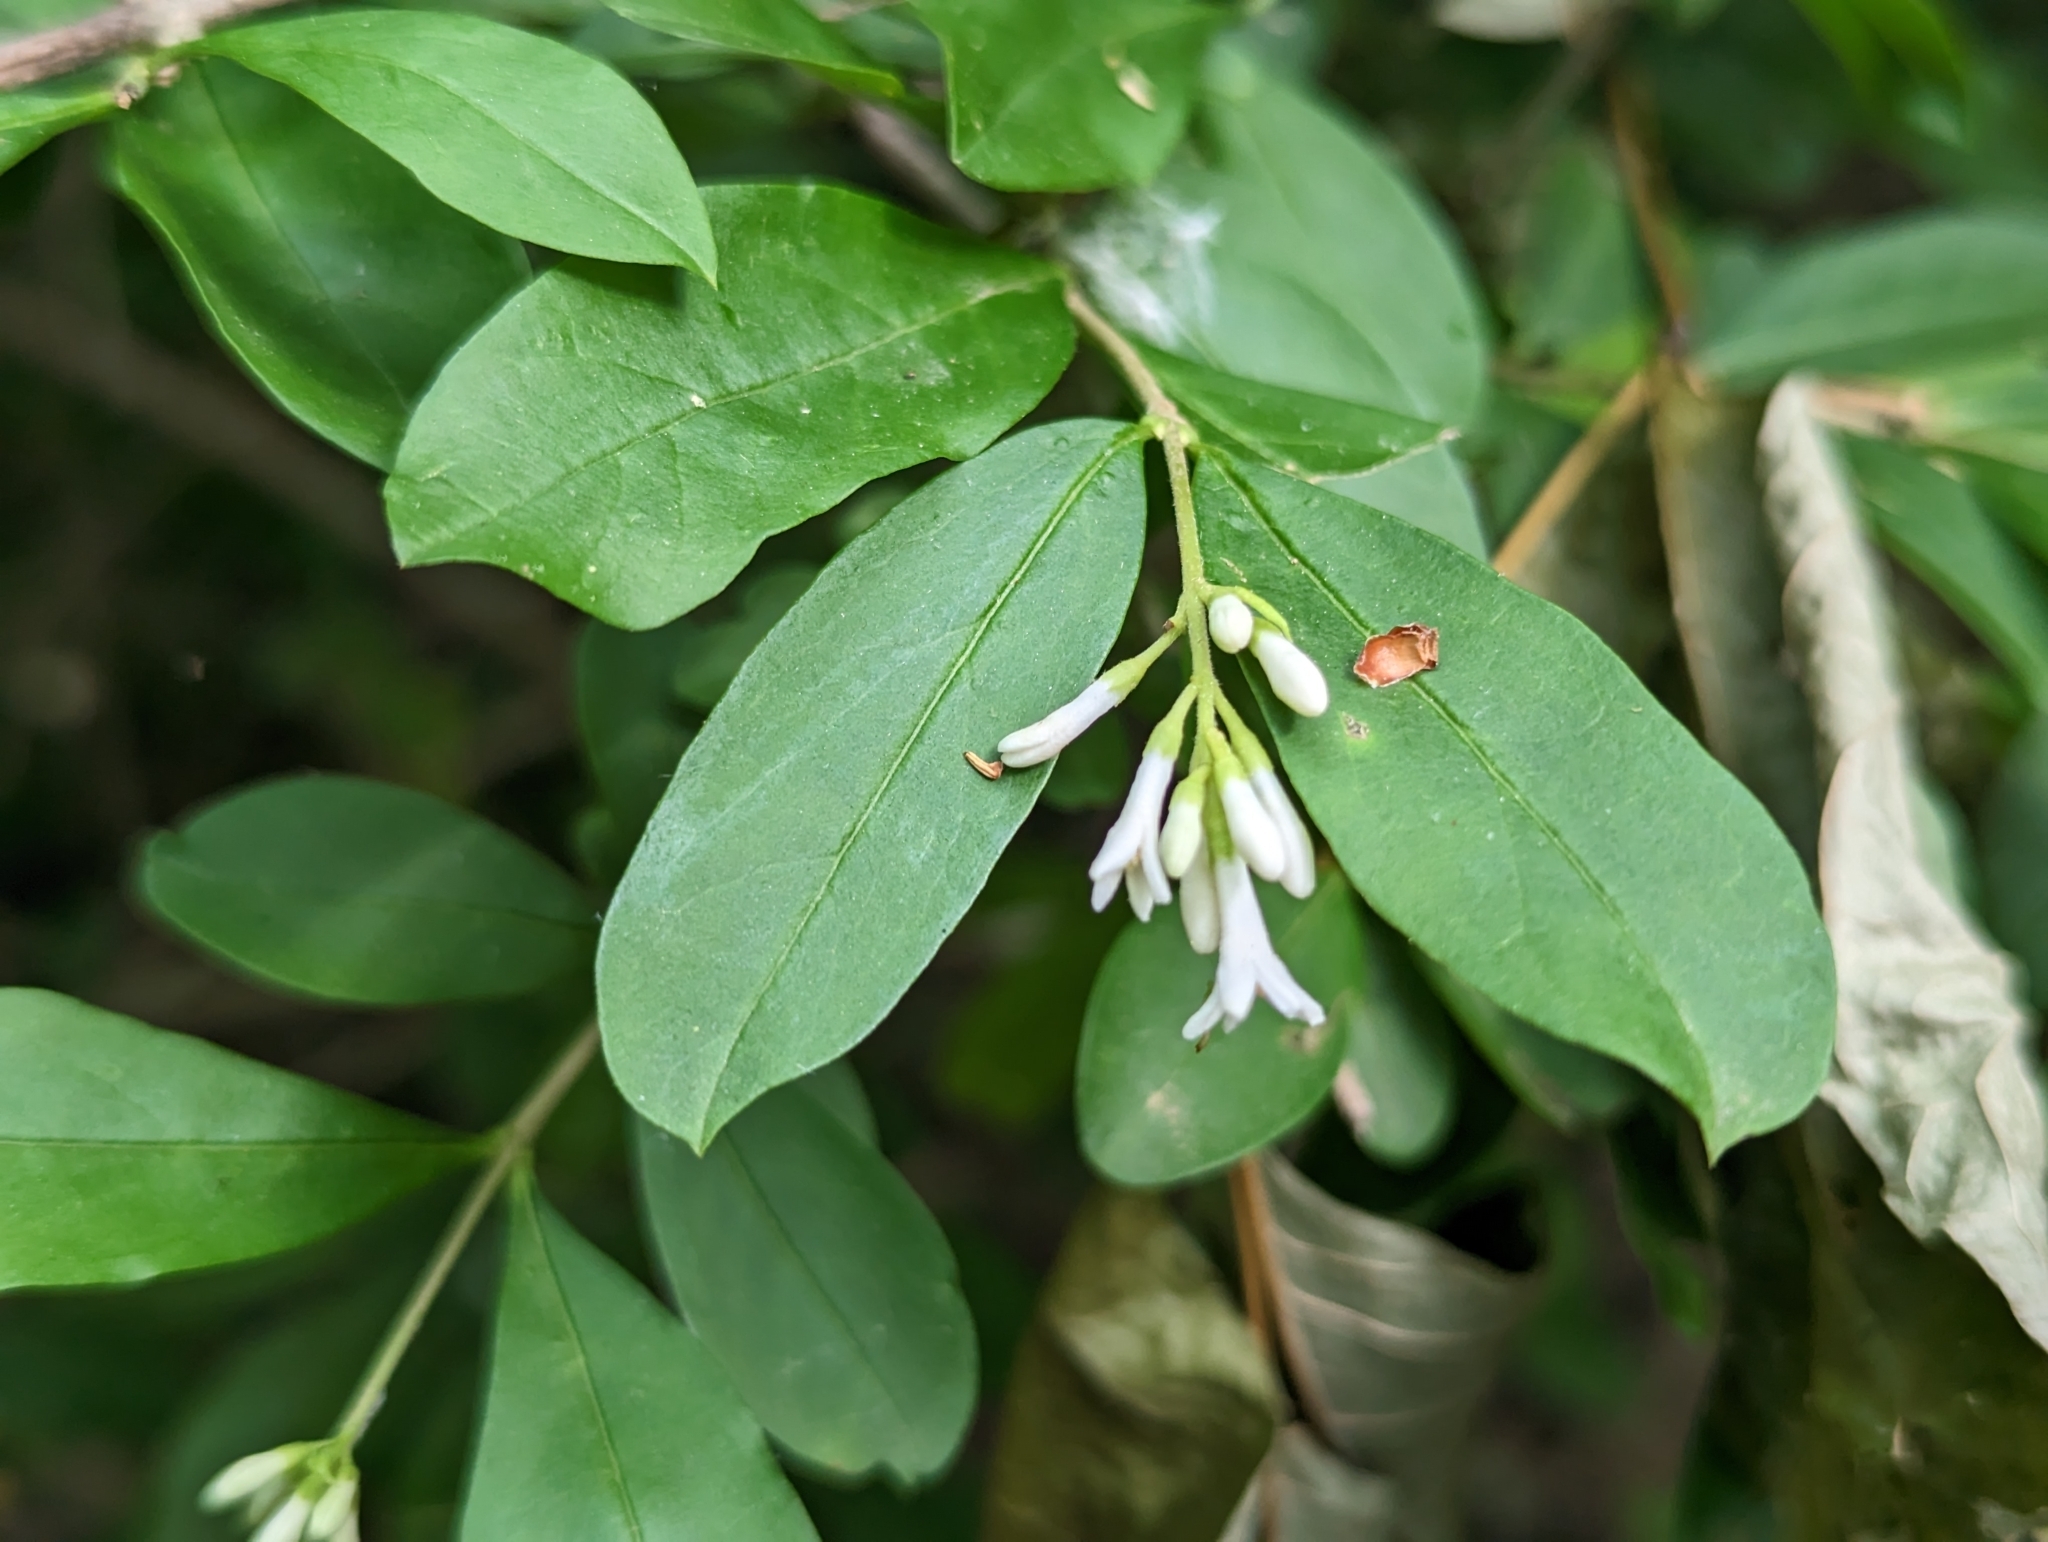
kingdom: Plantae
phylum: Tracheophyta
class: Magnoliopsida
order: Lamiales
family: Oleaceae
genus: Ligustrum
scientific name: Ligustrum obtusifolium
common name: Border privet
